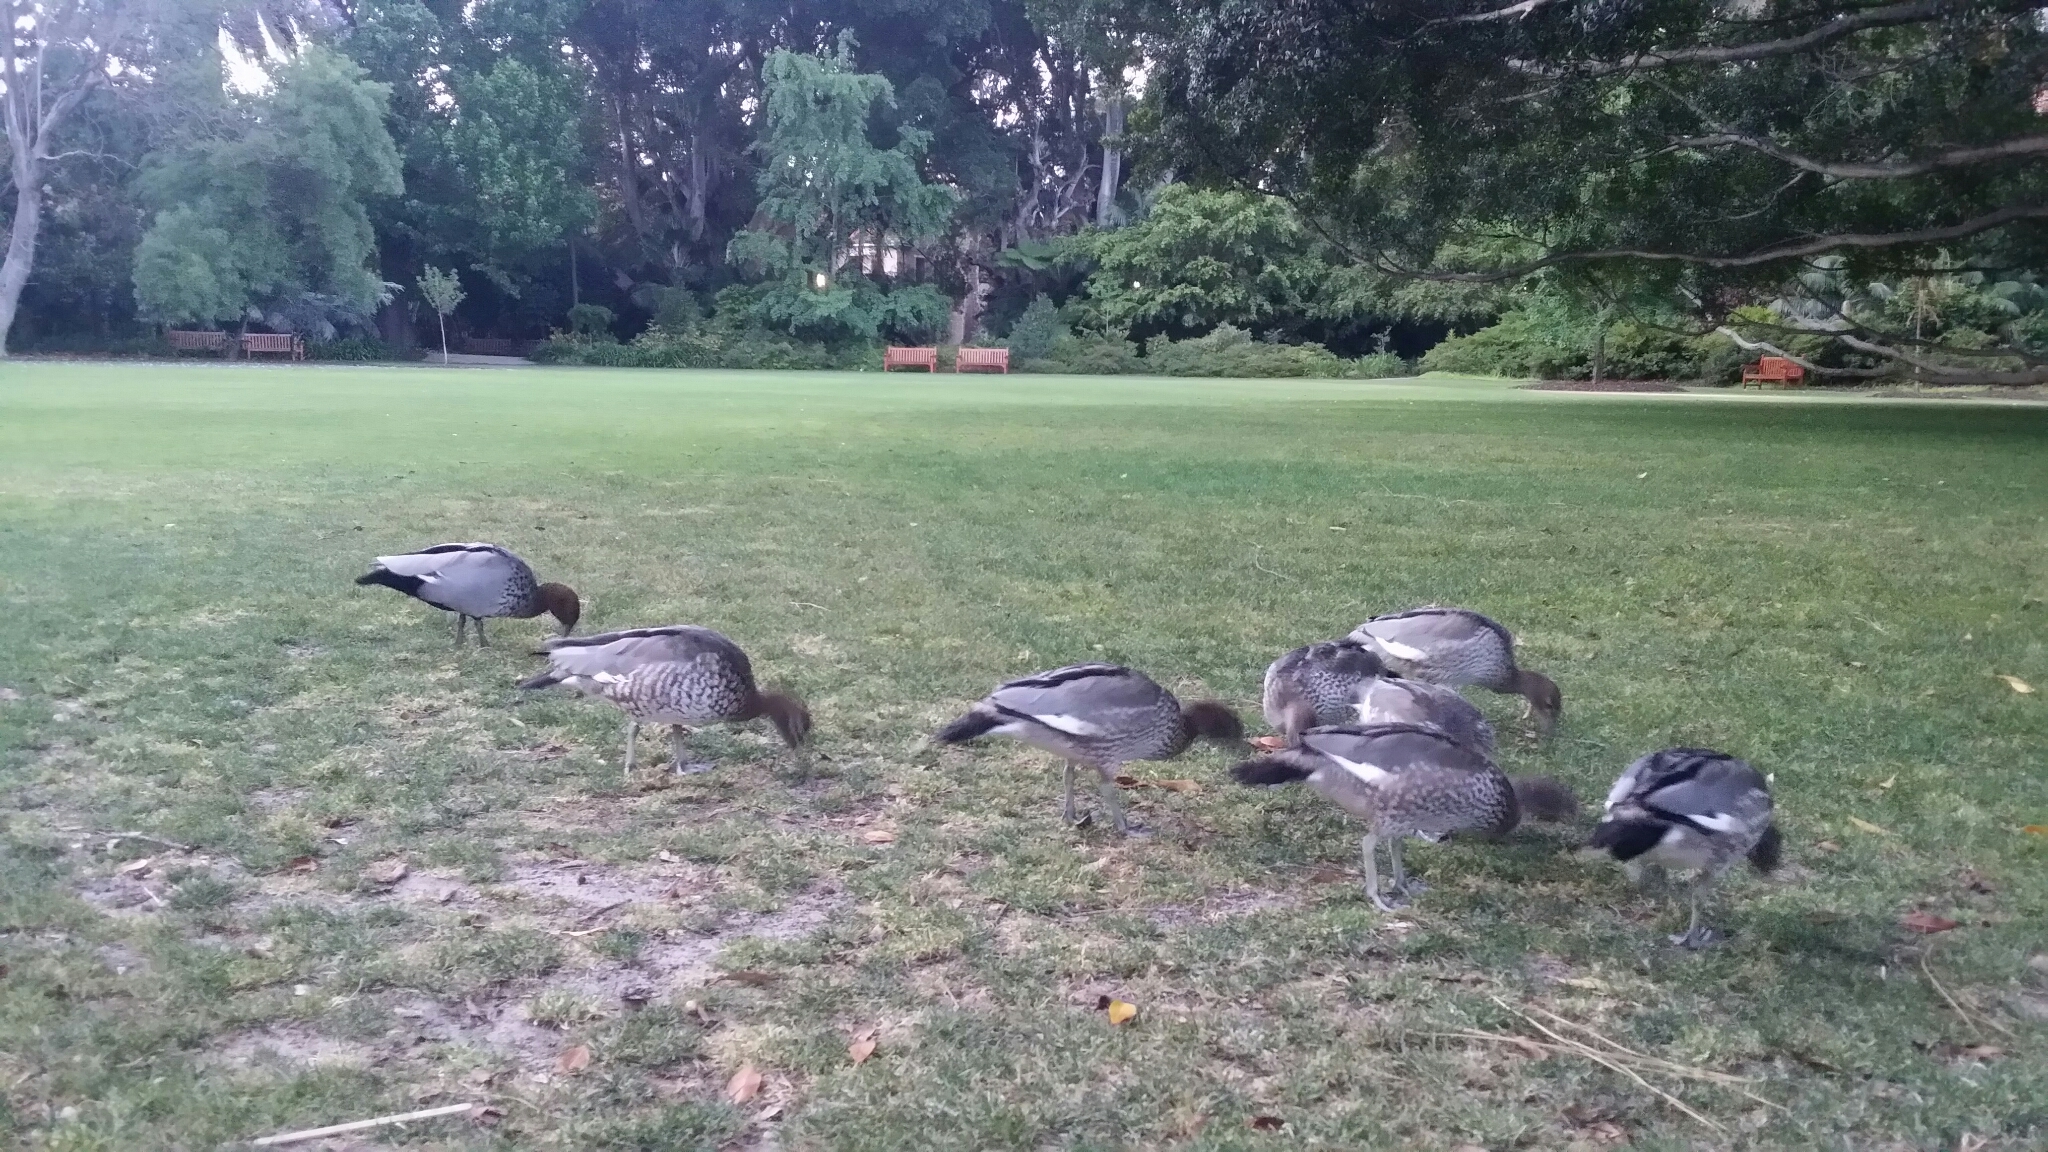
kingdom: Animalia
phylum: Chordata
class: Aves
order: Anseriformes
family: Anatidae
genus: Chenonetta
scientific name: Chenonetta jubata
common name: Maned duck
